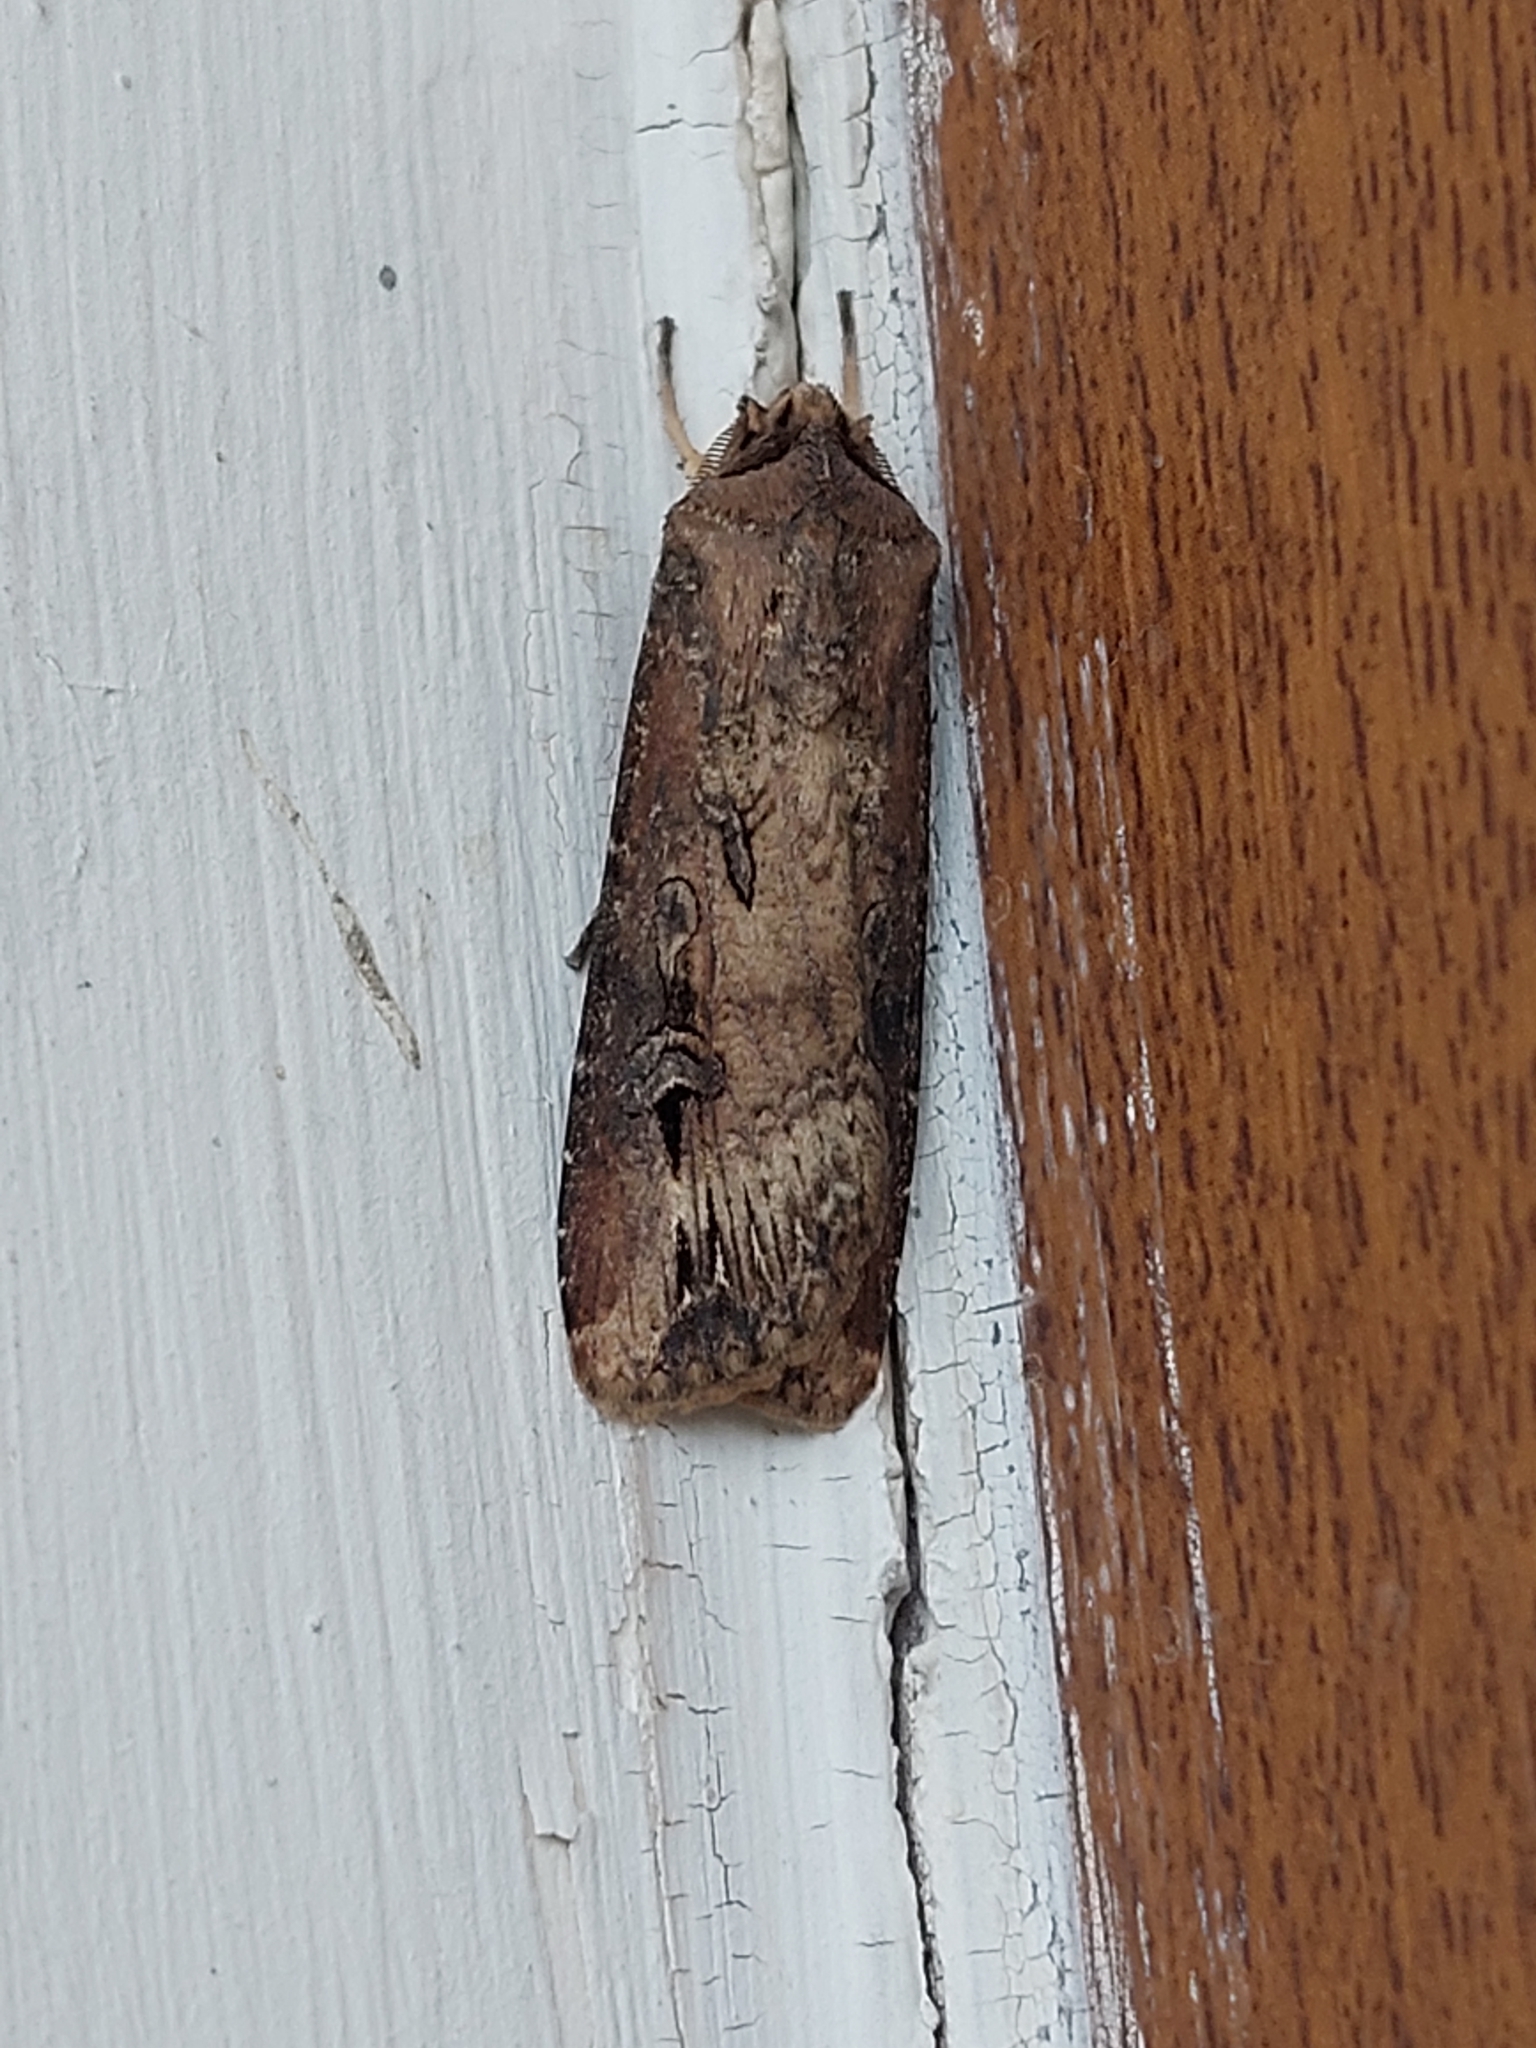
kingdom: Animalia
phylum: Arthropoda
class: Insecta
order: Lepidoptera
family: Noctuidae
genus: Agrotis
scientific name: Agrotis ipsilon
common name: Dark sword-grass
